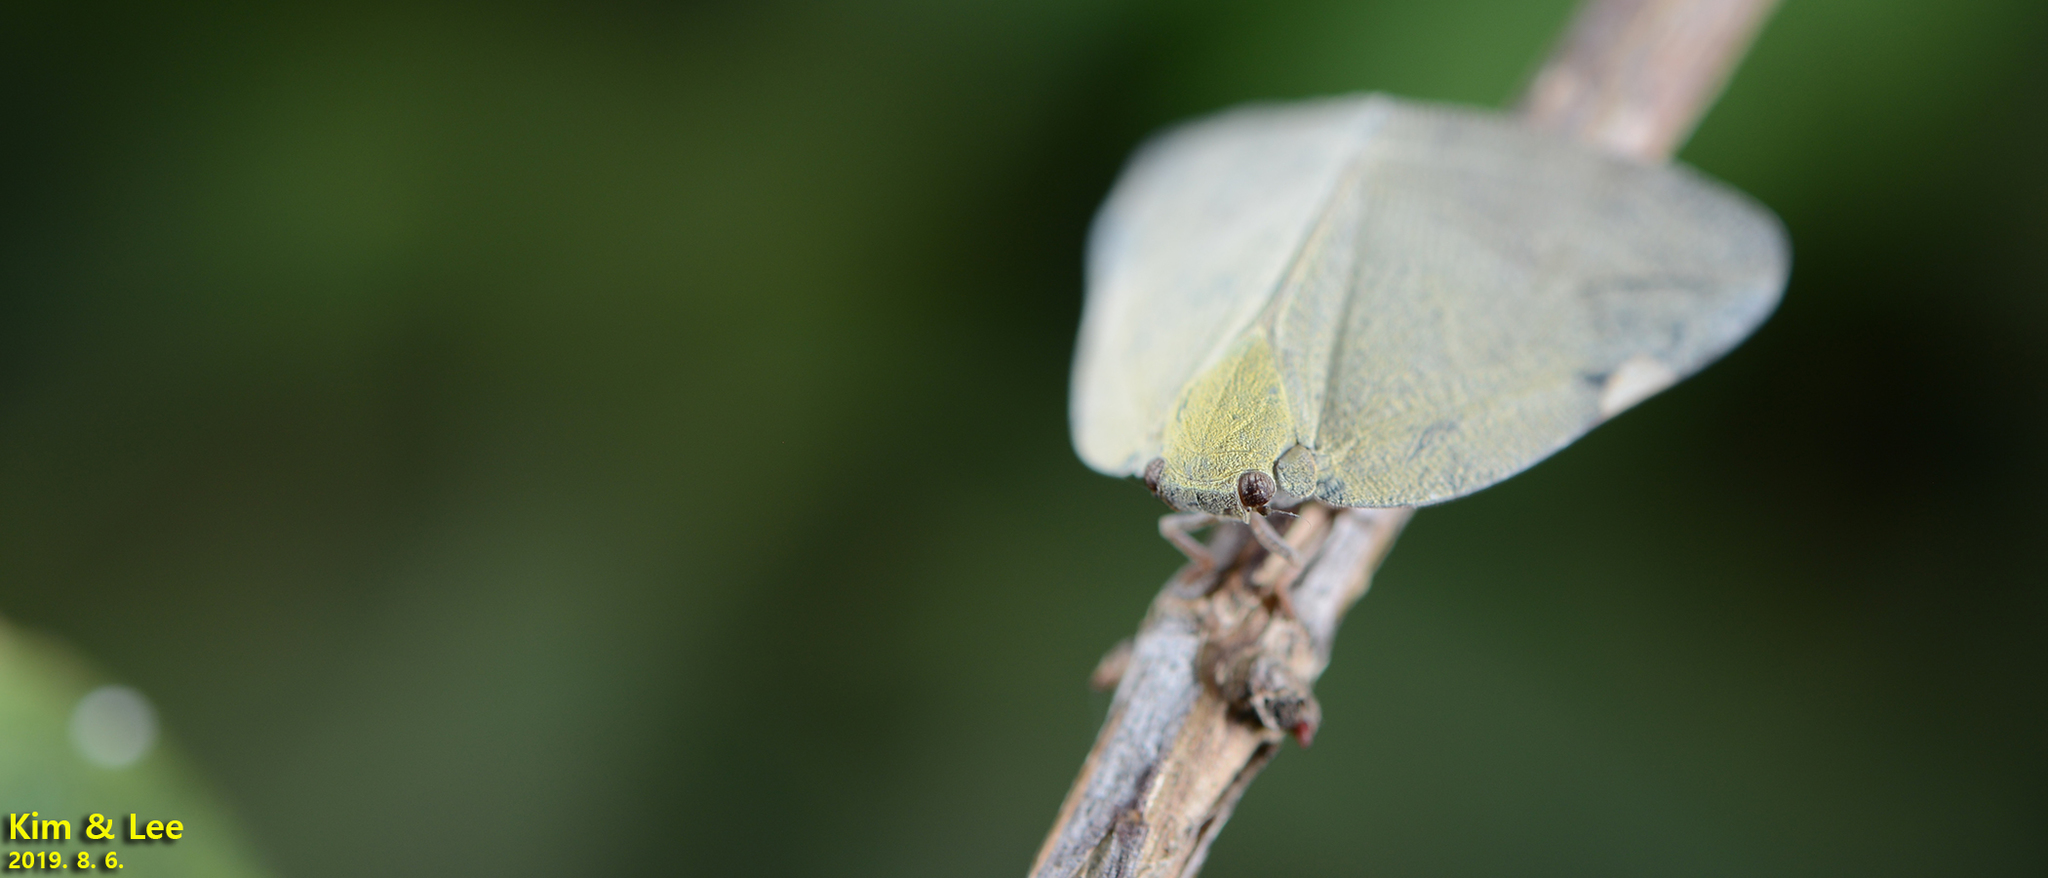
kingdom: Animalia
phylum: Arthropoda
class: Insecta
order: Hemiptera
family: Ricaniidae
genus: Ricanula
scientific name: Ricanula sublimata
